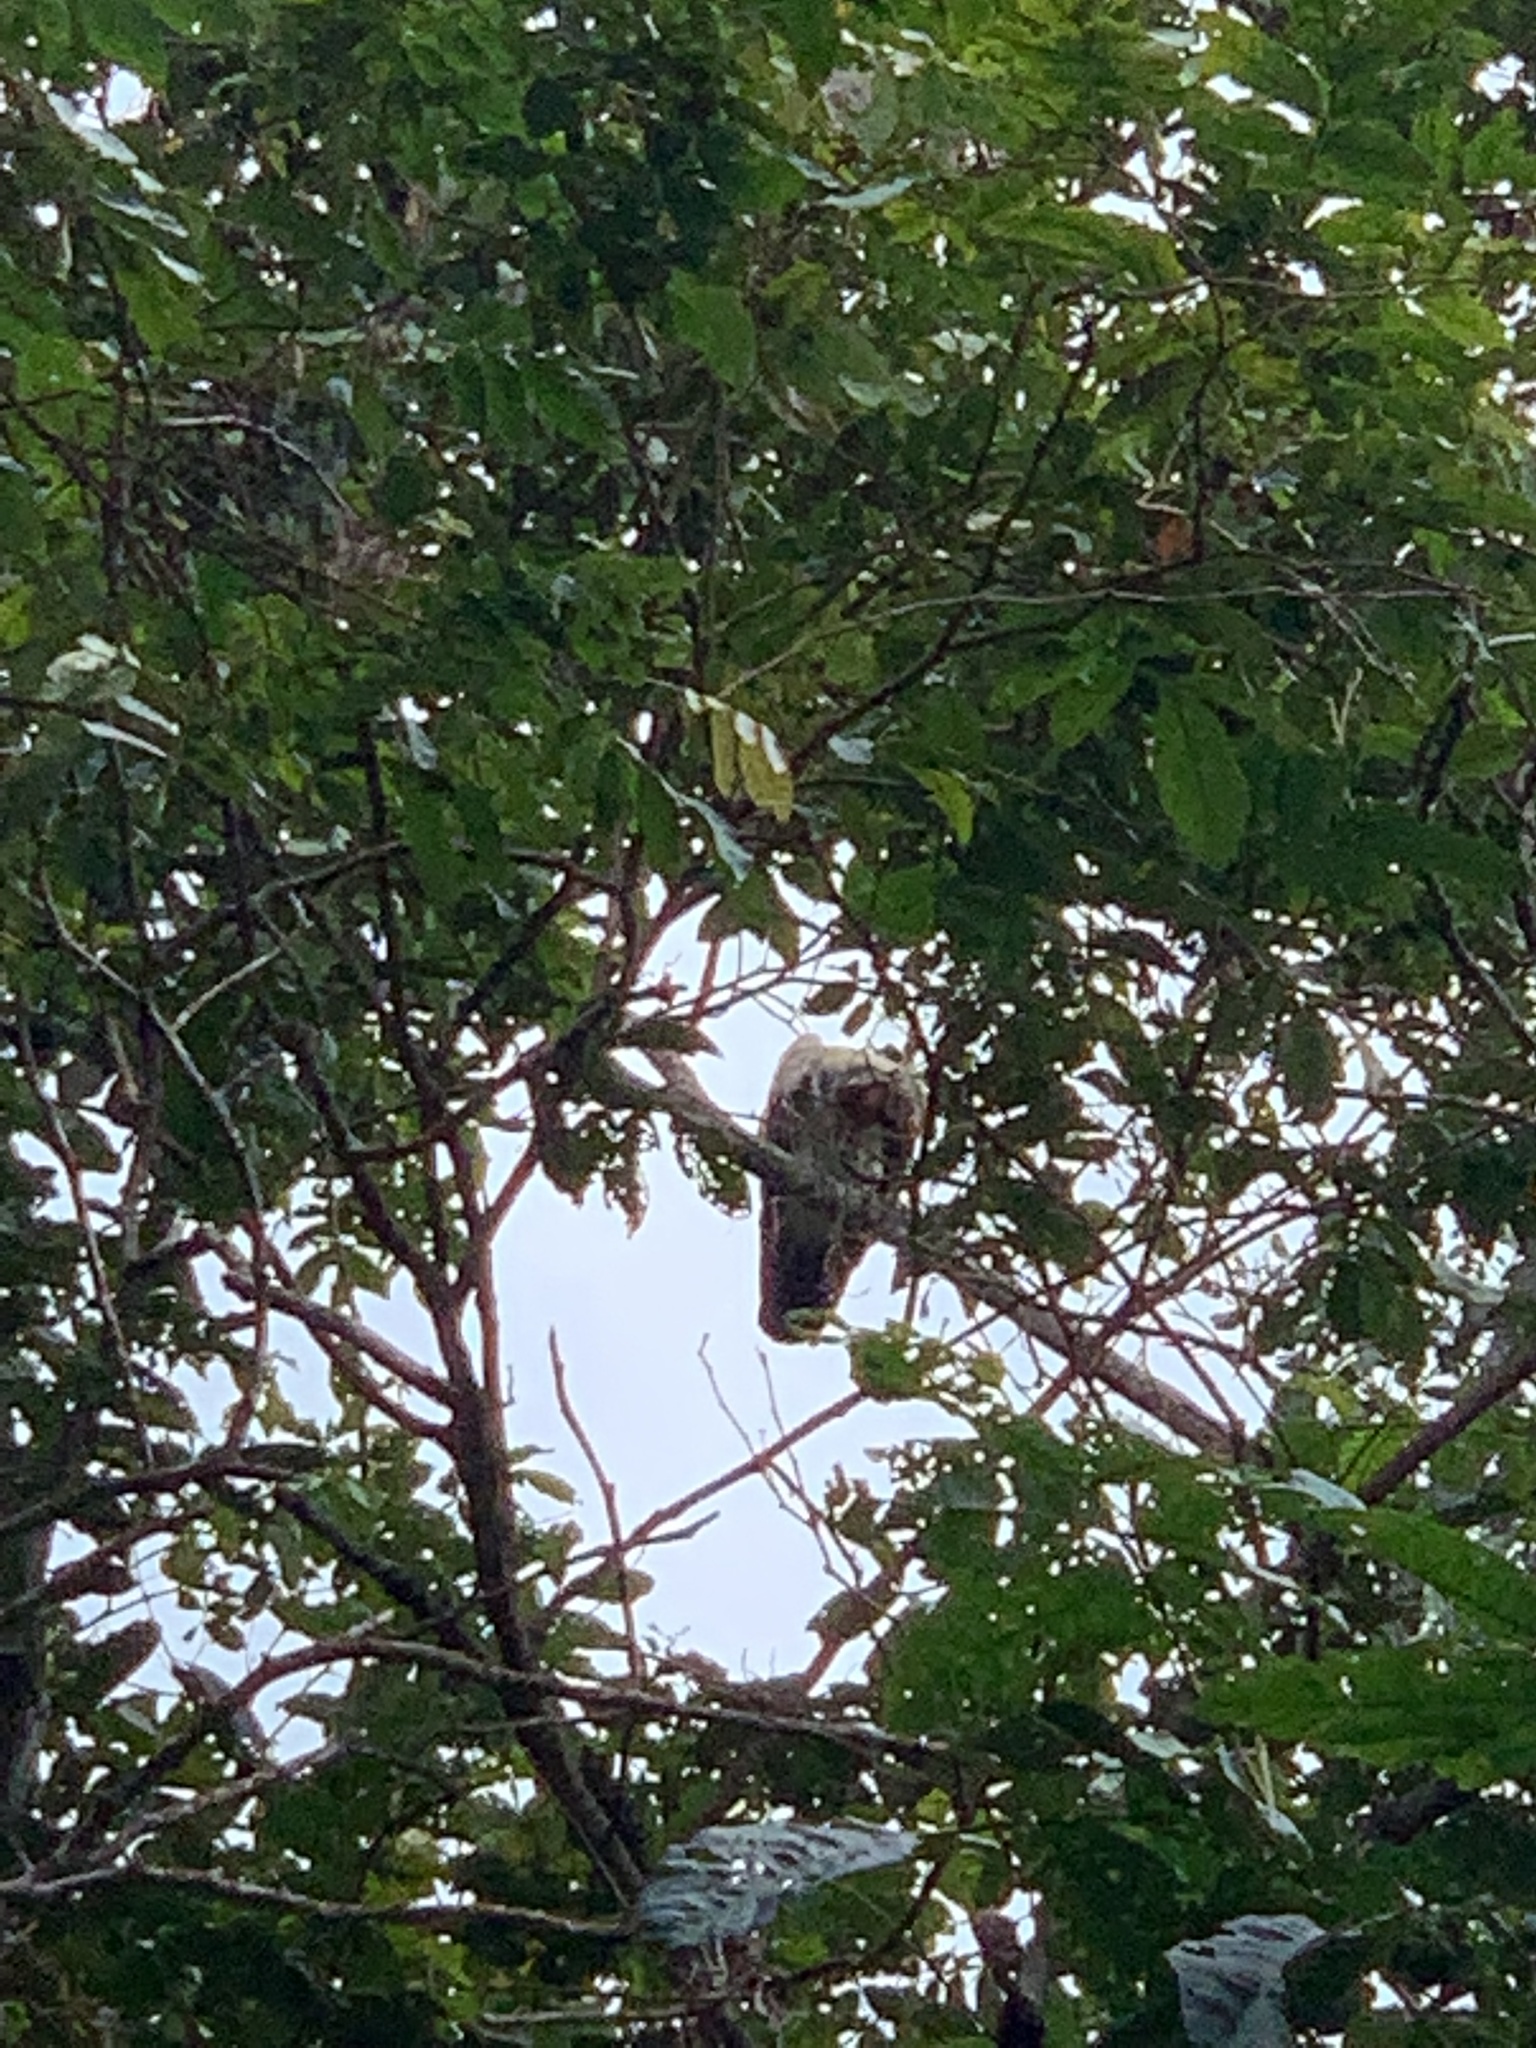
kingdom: Animalia
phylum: Chordata
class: Aves
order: Accipitriformes
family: Cathartidae
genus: Sarcoramphus
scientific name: Sarcoramphus papa
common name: King vulture
